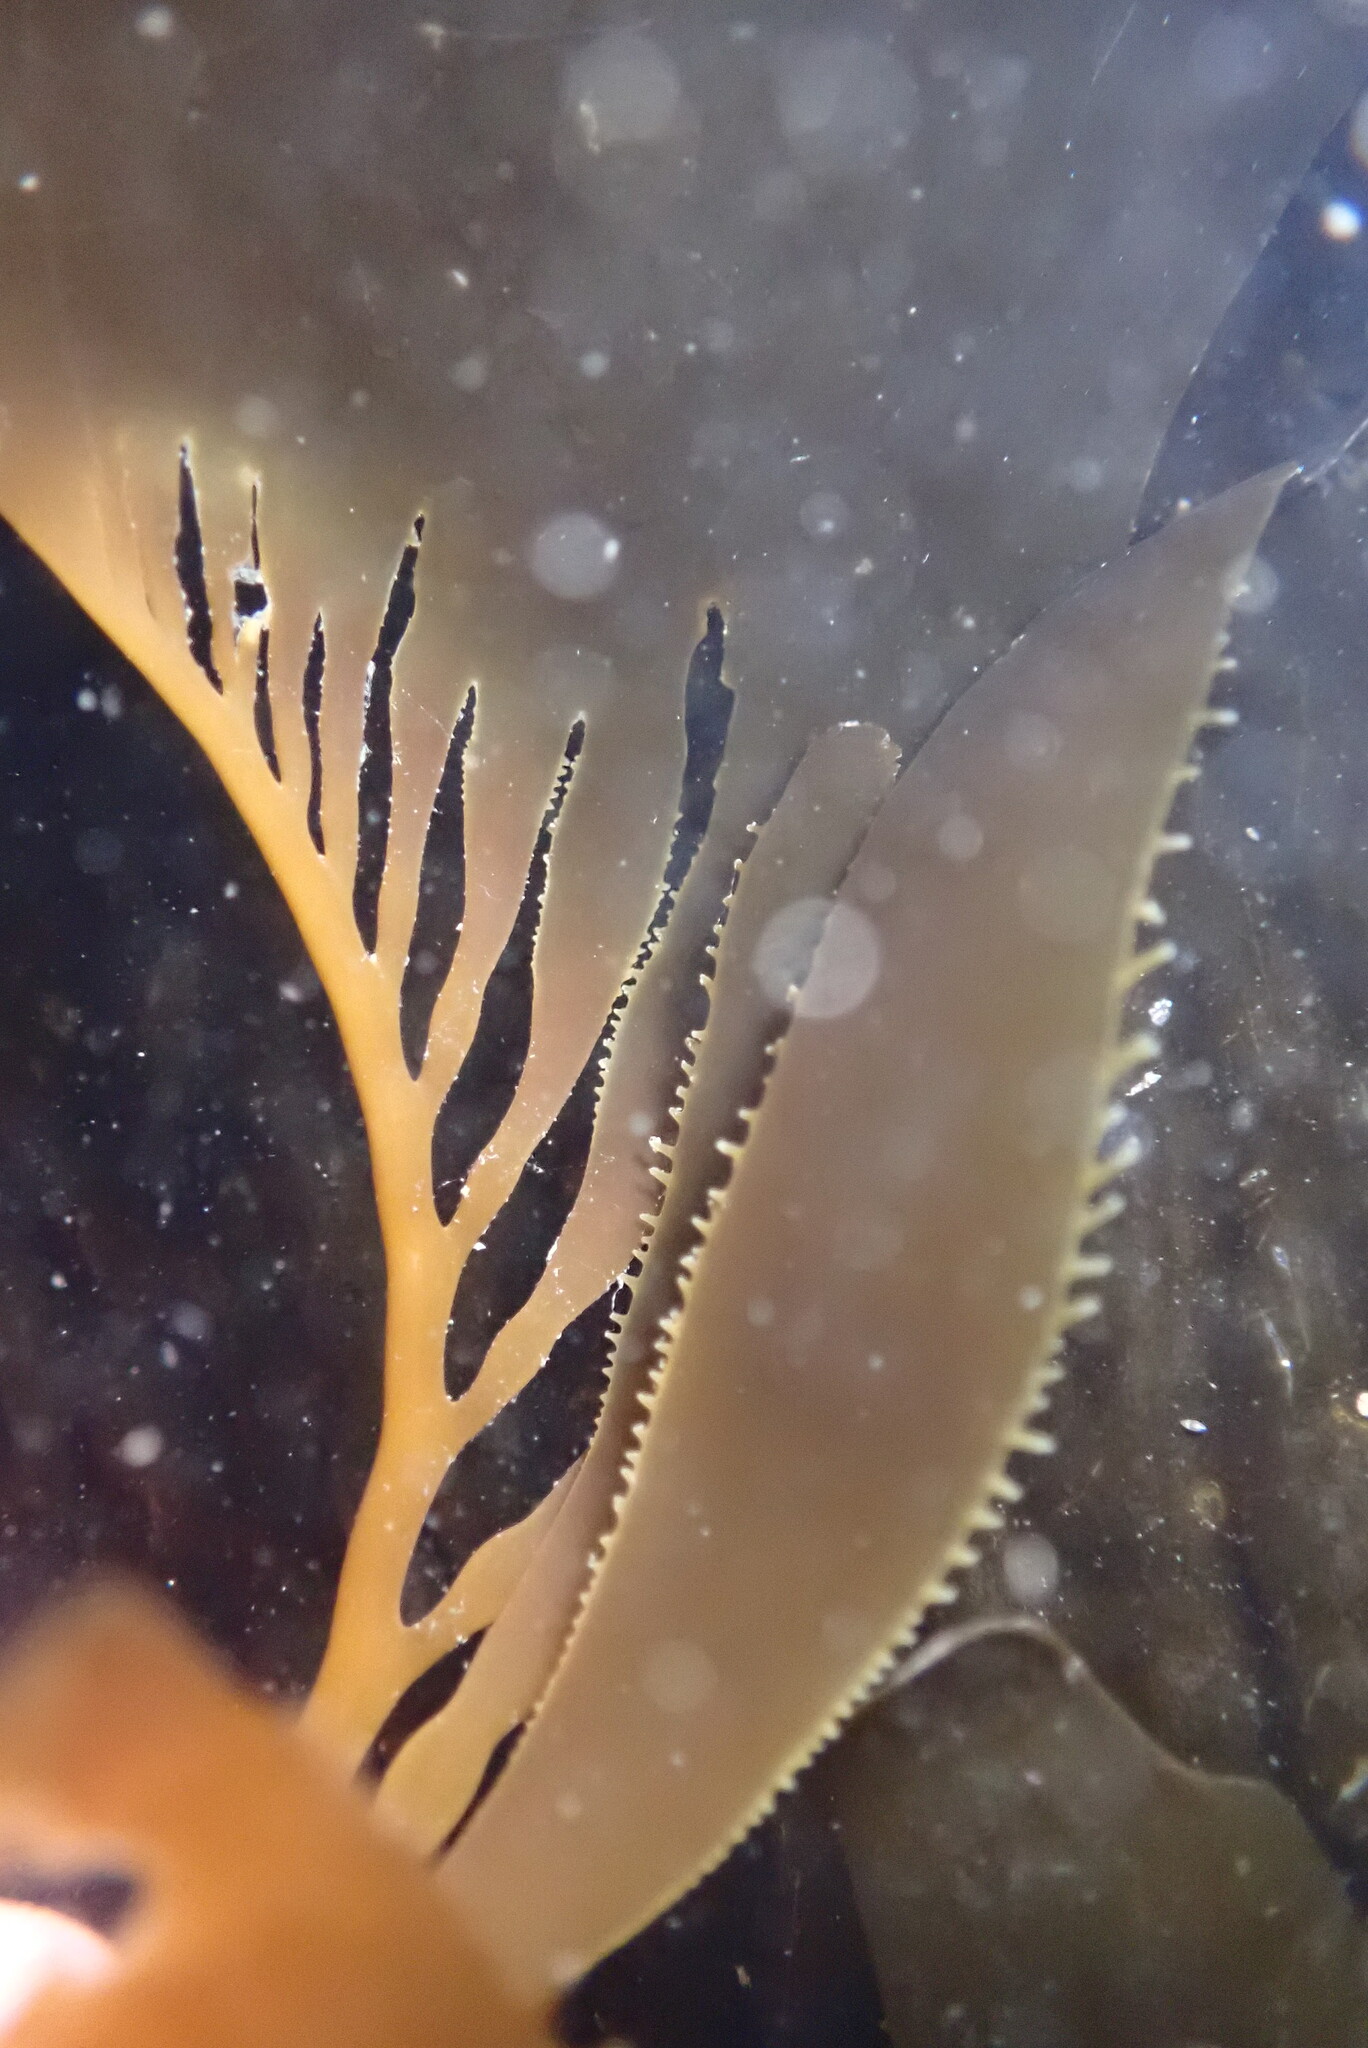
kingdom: Chromista
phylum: Ochrophyta
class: Phaeophyceae
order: Laminariales
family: Laminariaceae
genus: Macrocystis
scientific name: Macrocystis pyrifera
